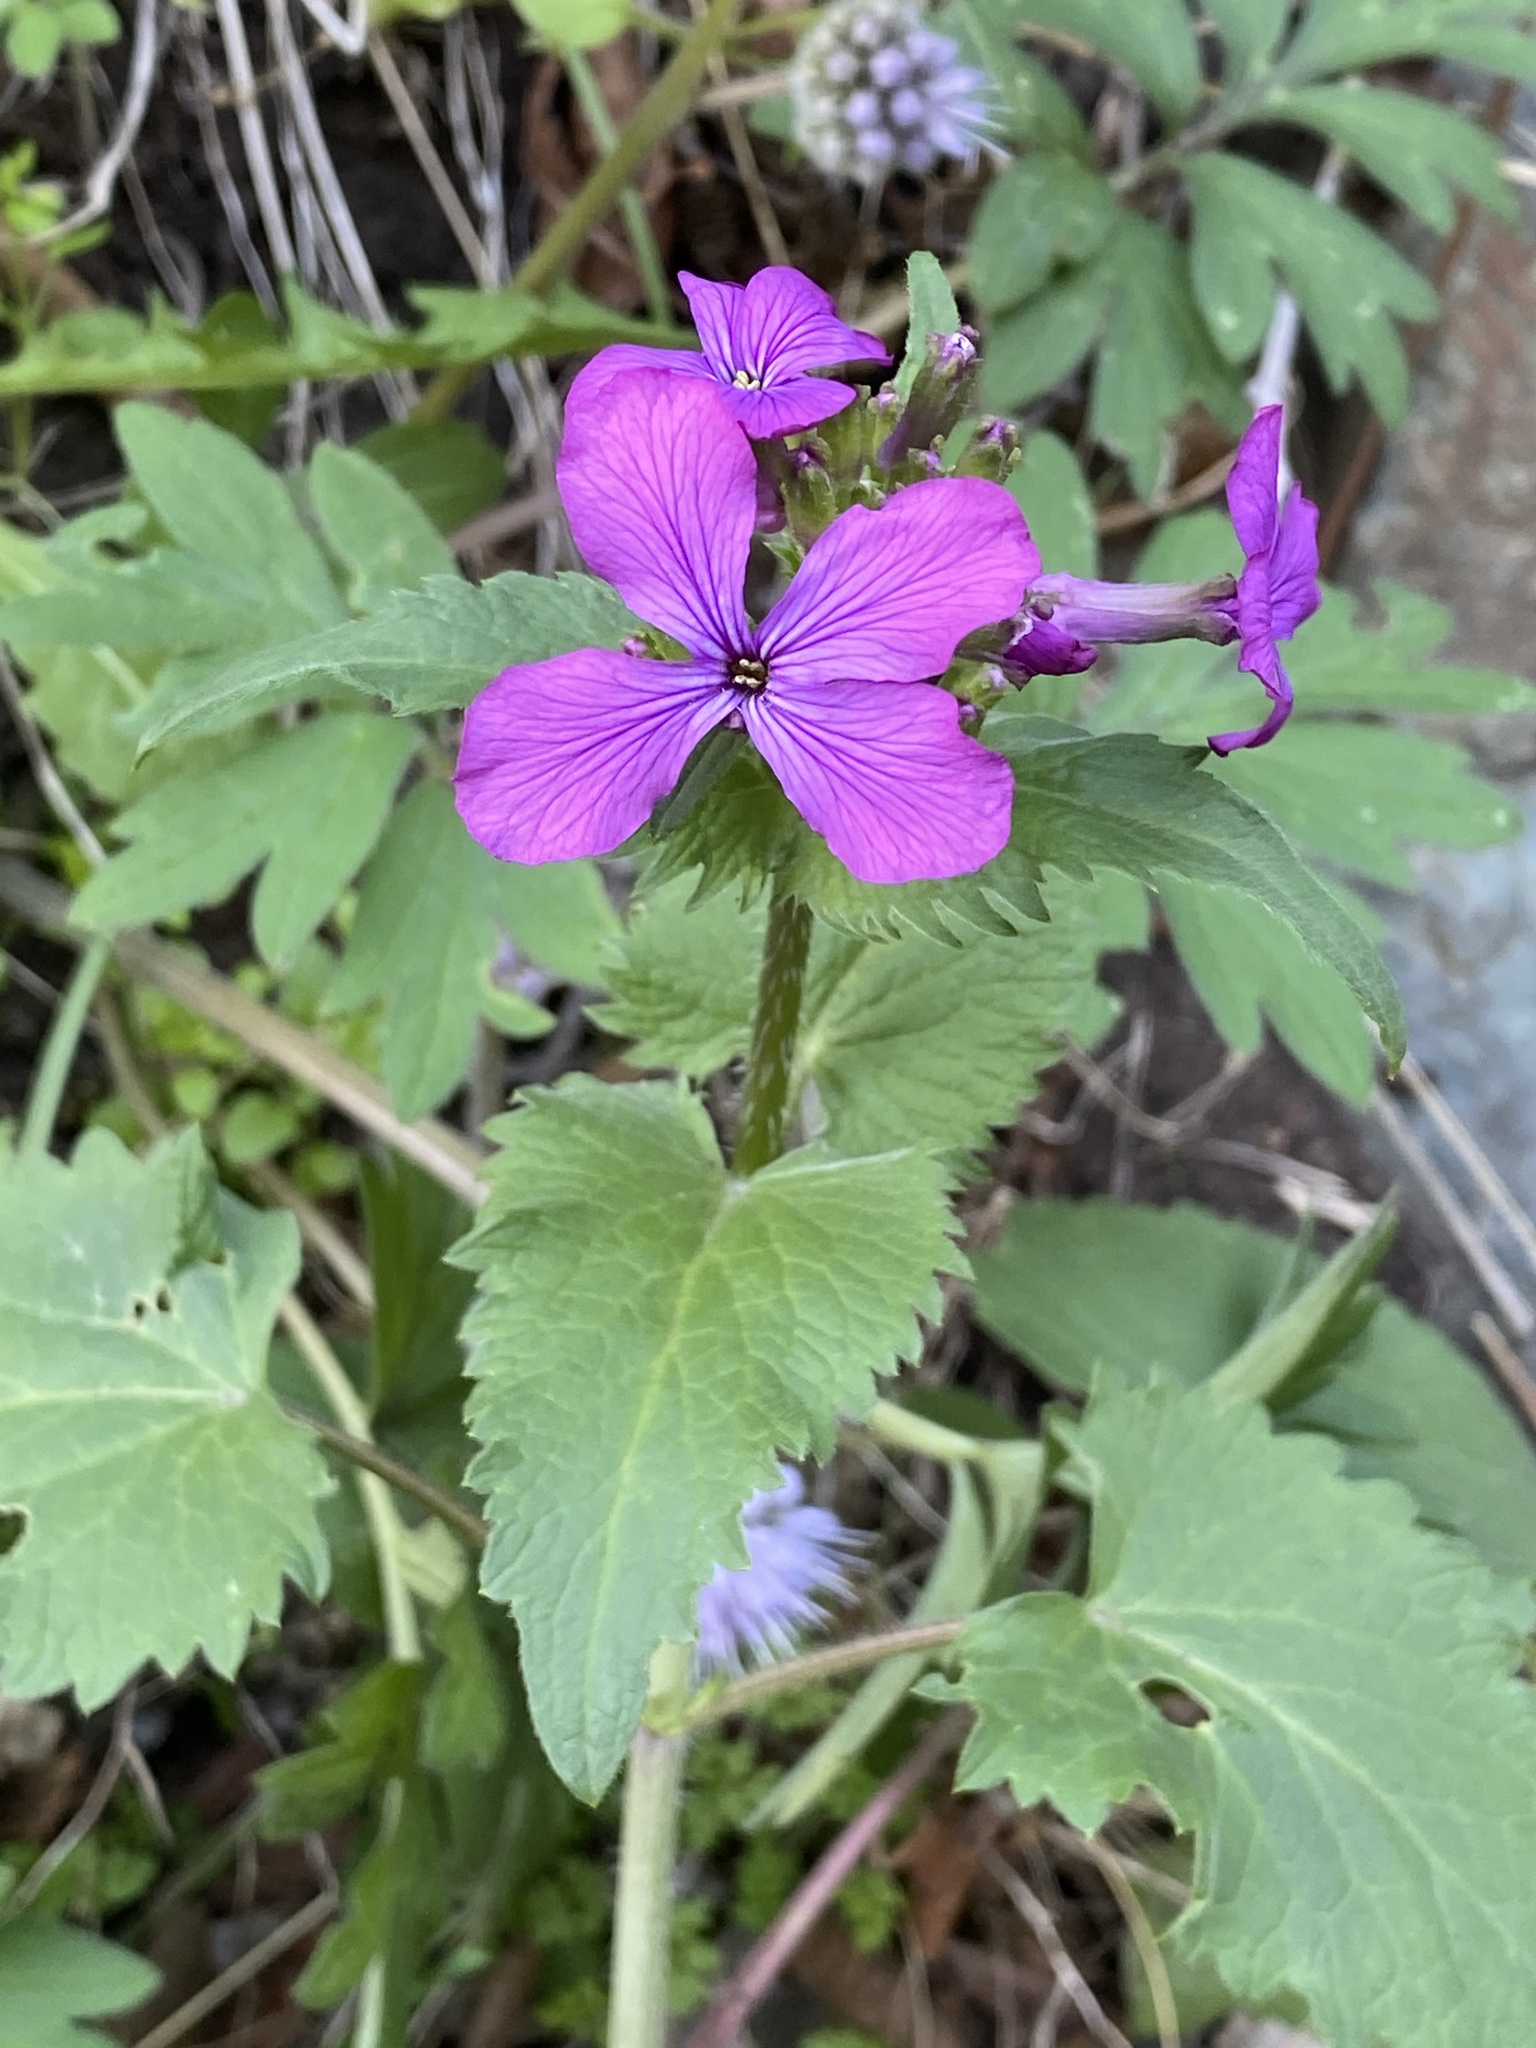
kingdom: Plantae
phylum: Tracheophyta
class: Magnoliopsida
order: Brassicales
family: Brassicaceae
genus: Lunaria
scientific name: Lunaria annua
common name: Honesty
